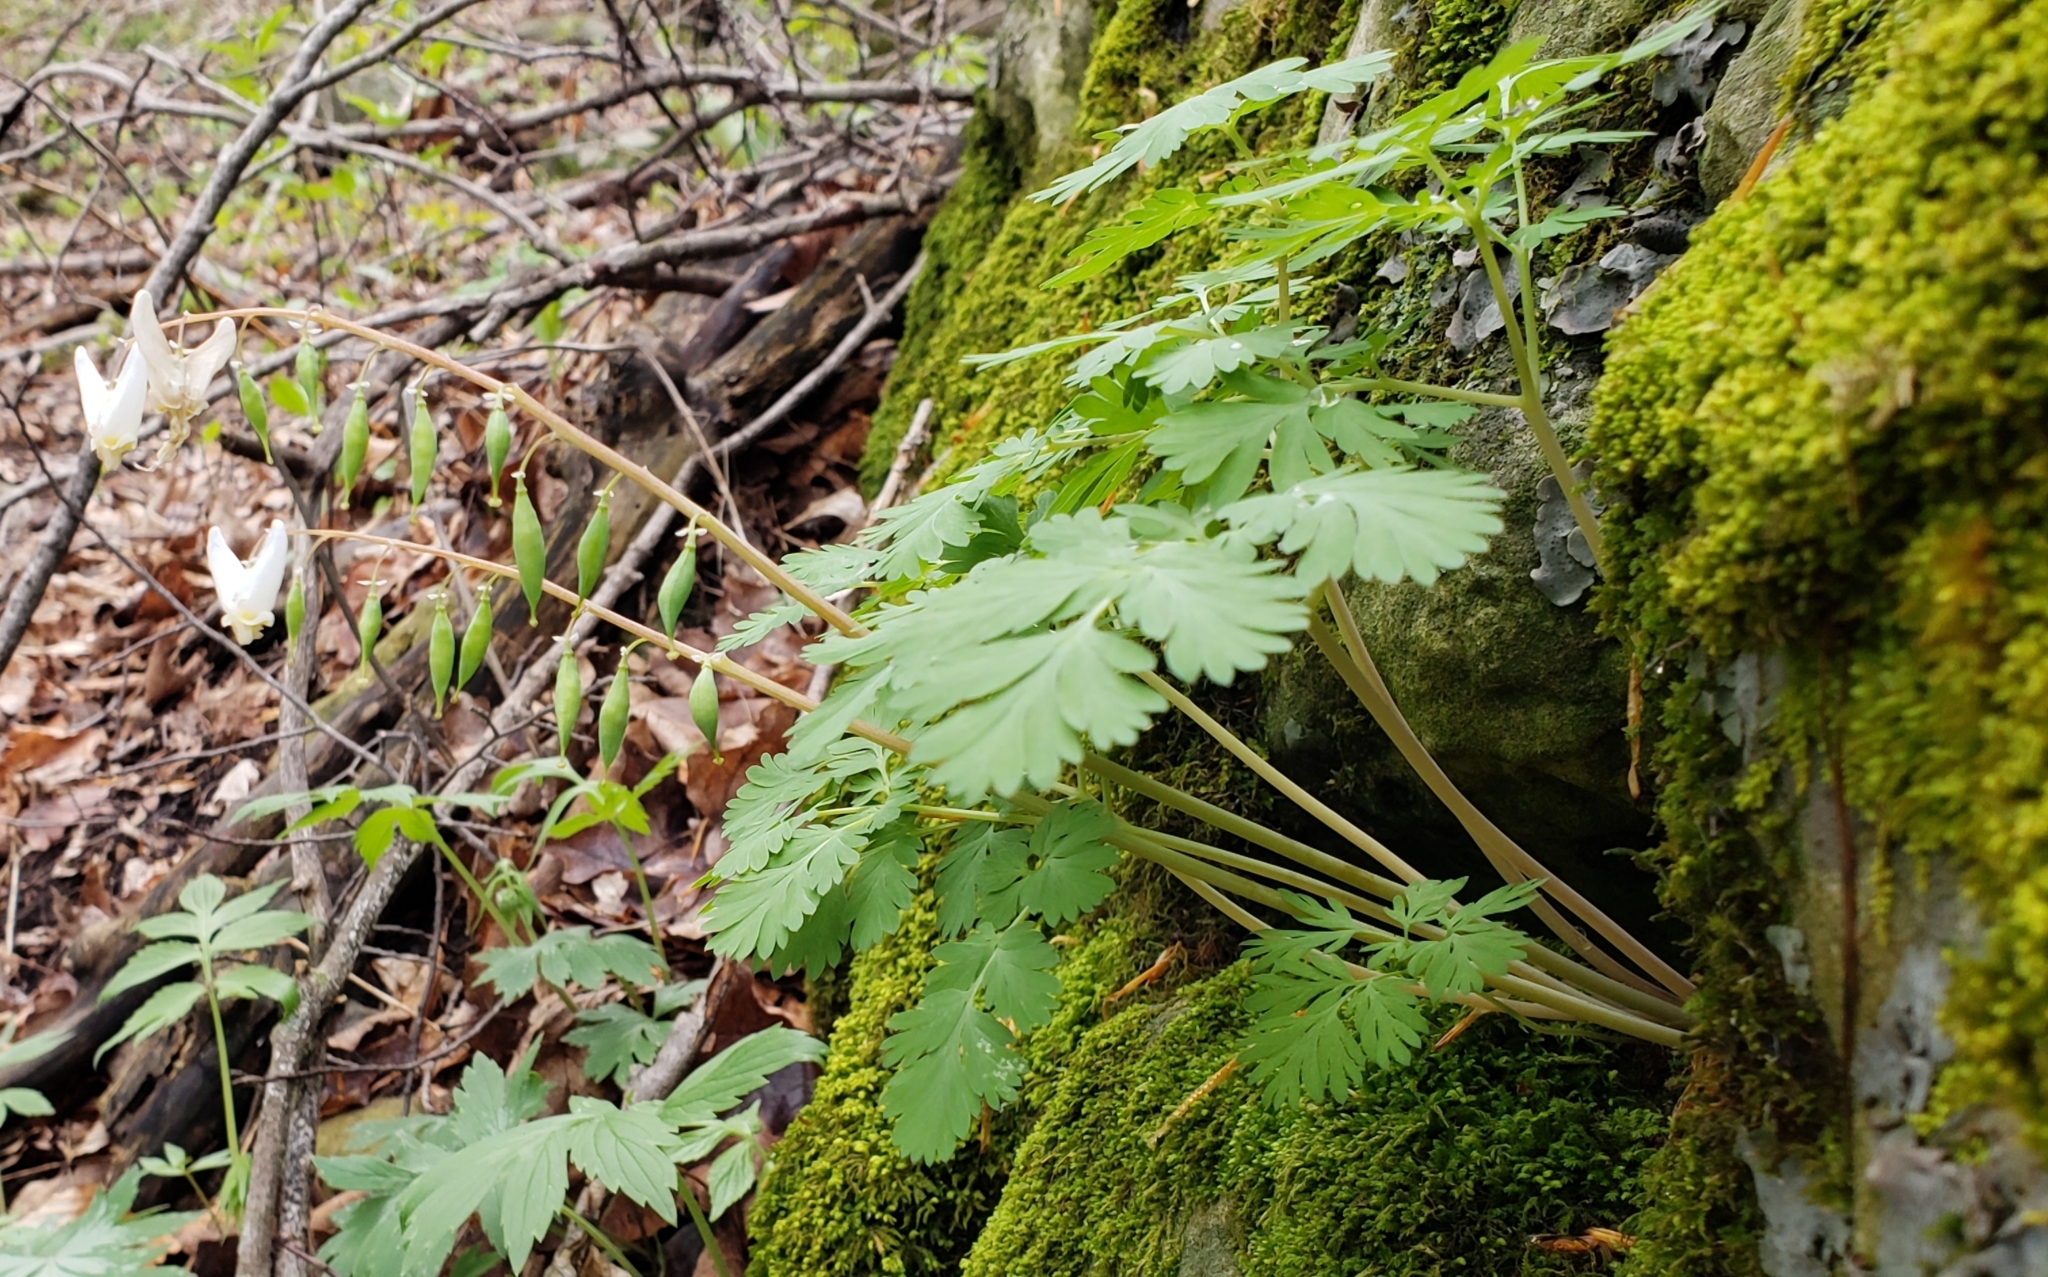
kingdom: Plantae
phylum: Tracheophyta
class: Magnoliopsida
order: Ranunculales
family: Papaveraceae
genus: Dicentra
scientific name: Dicentra cucullaria
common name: Dutchman's breeches
